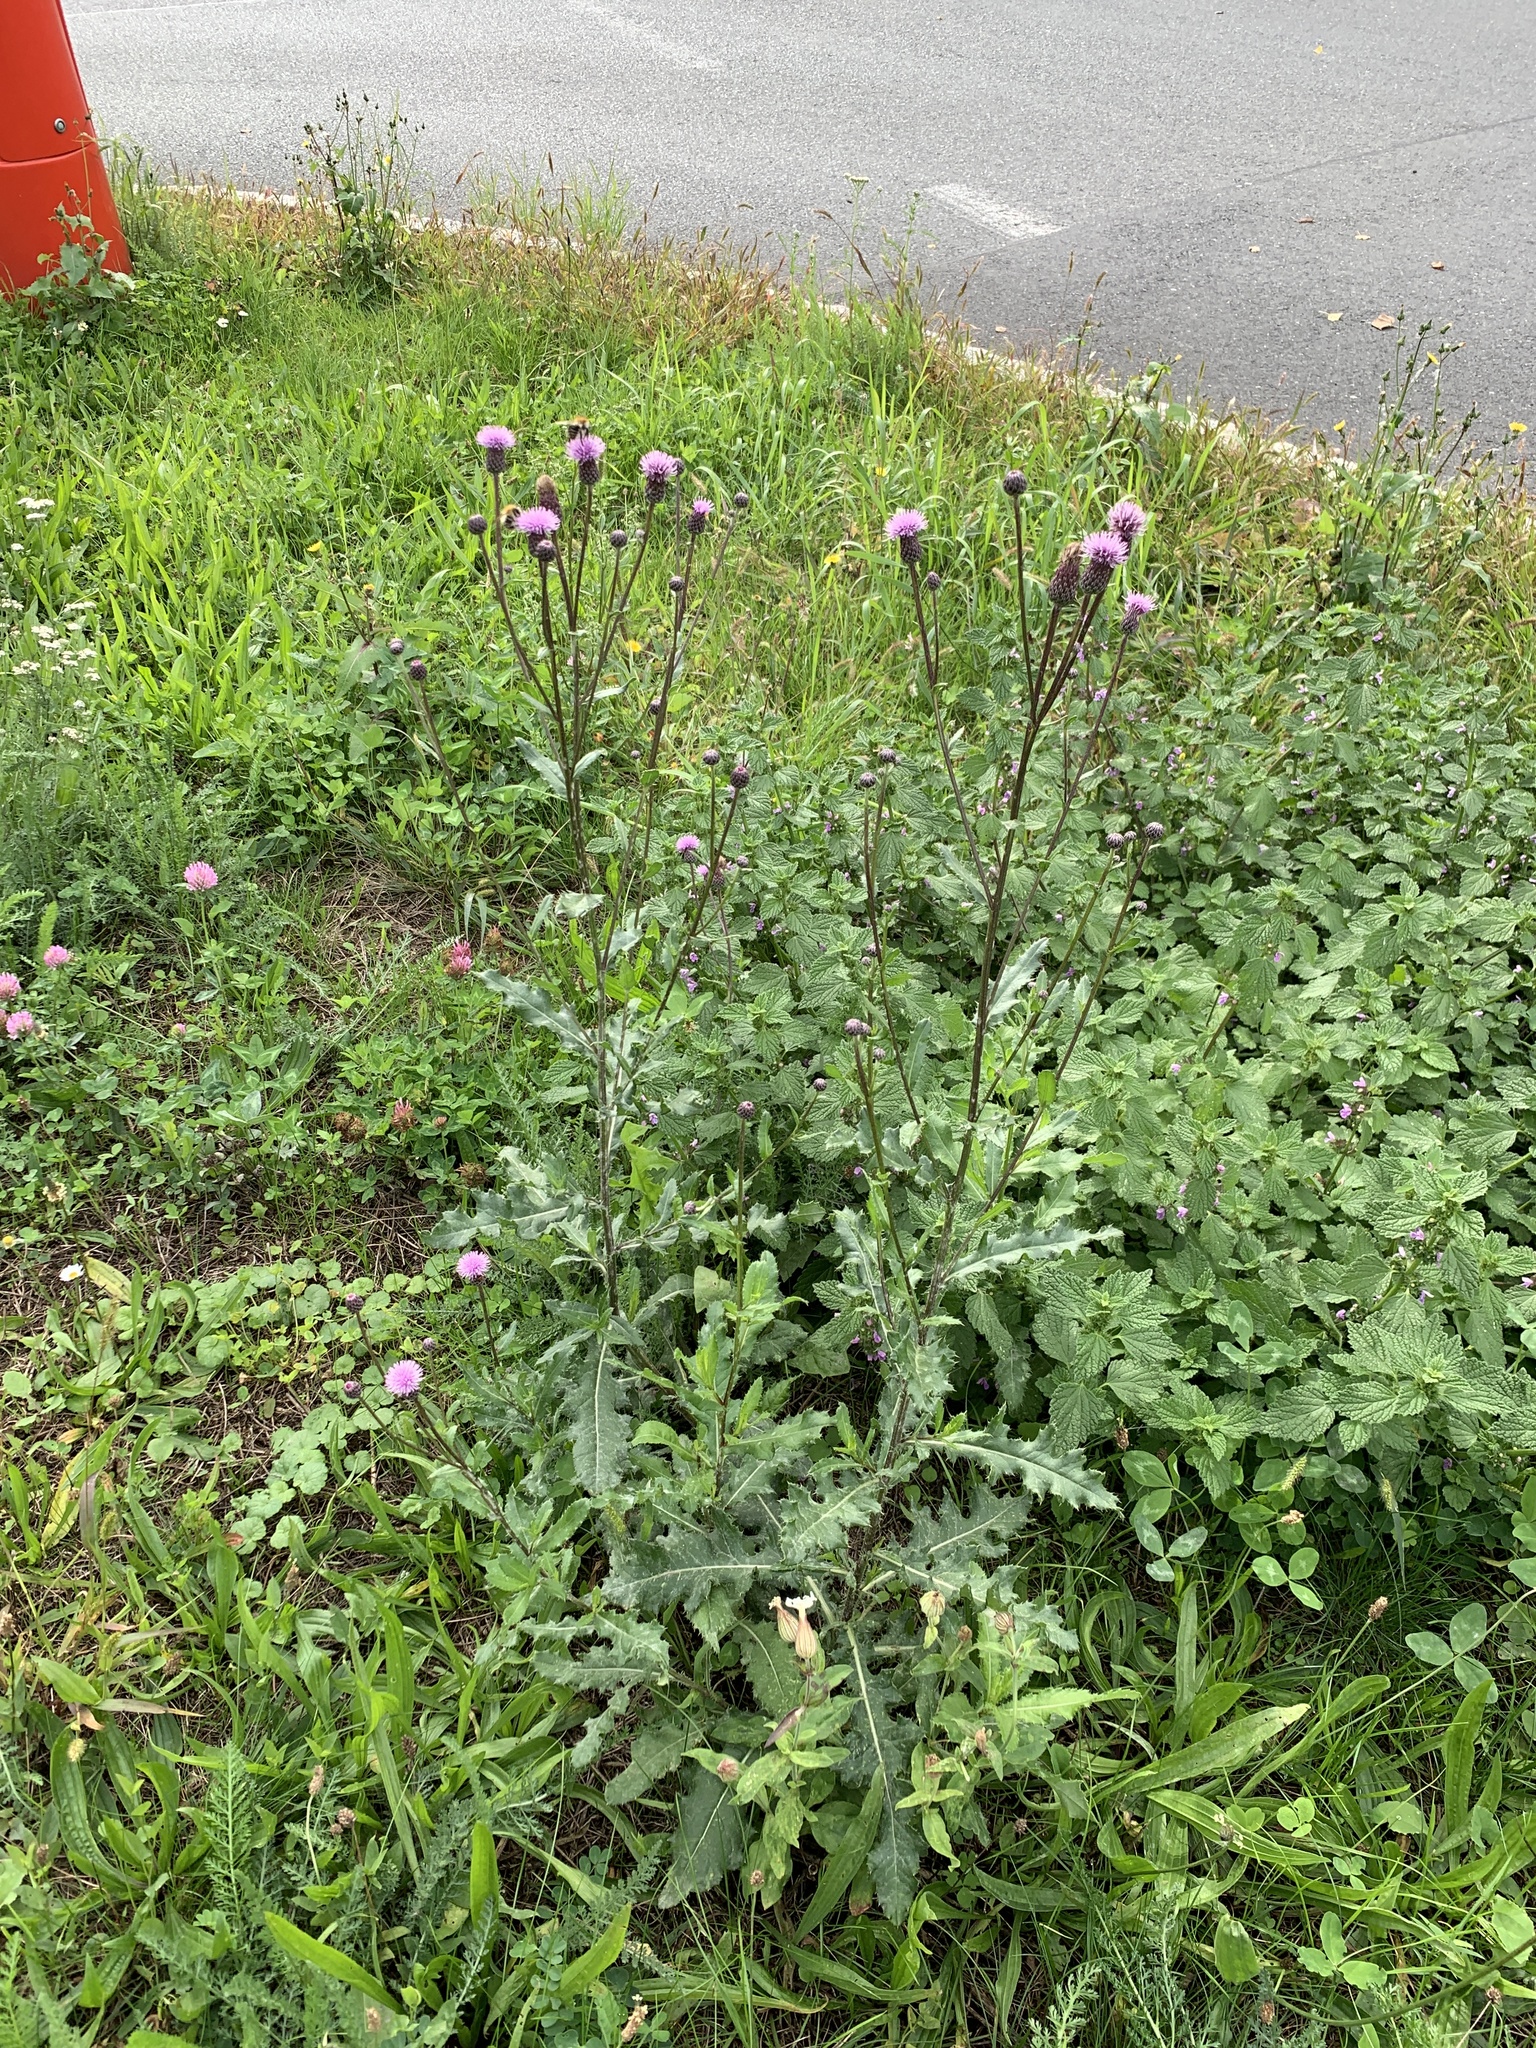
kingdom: Plantae
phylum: Tracheophyta
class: Magnoliopsida
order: Asterales
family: Asteraceae
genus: Cirsium
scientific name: Cirsium arvense
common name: Creeping thistle
